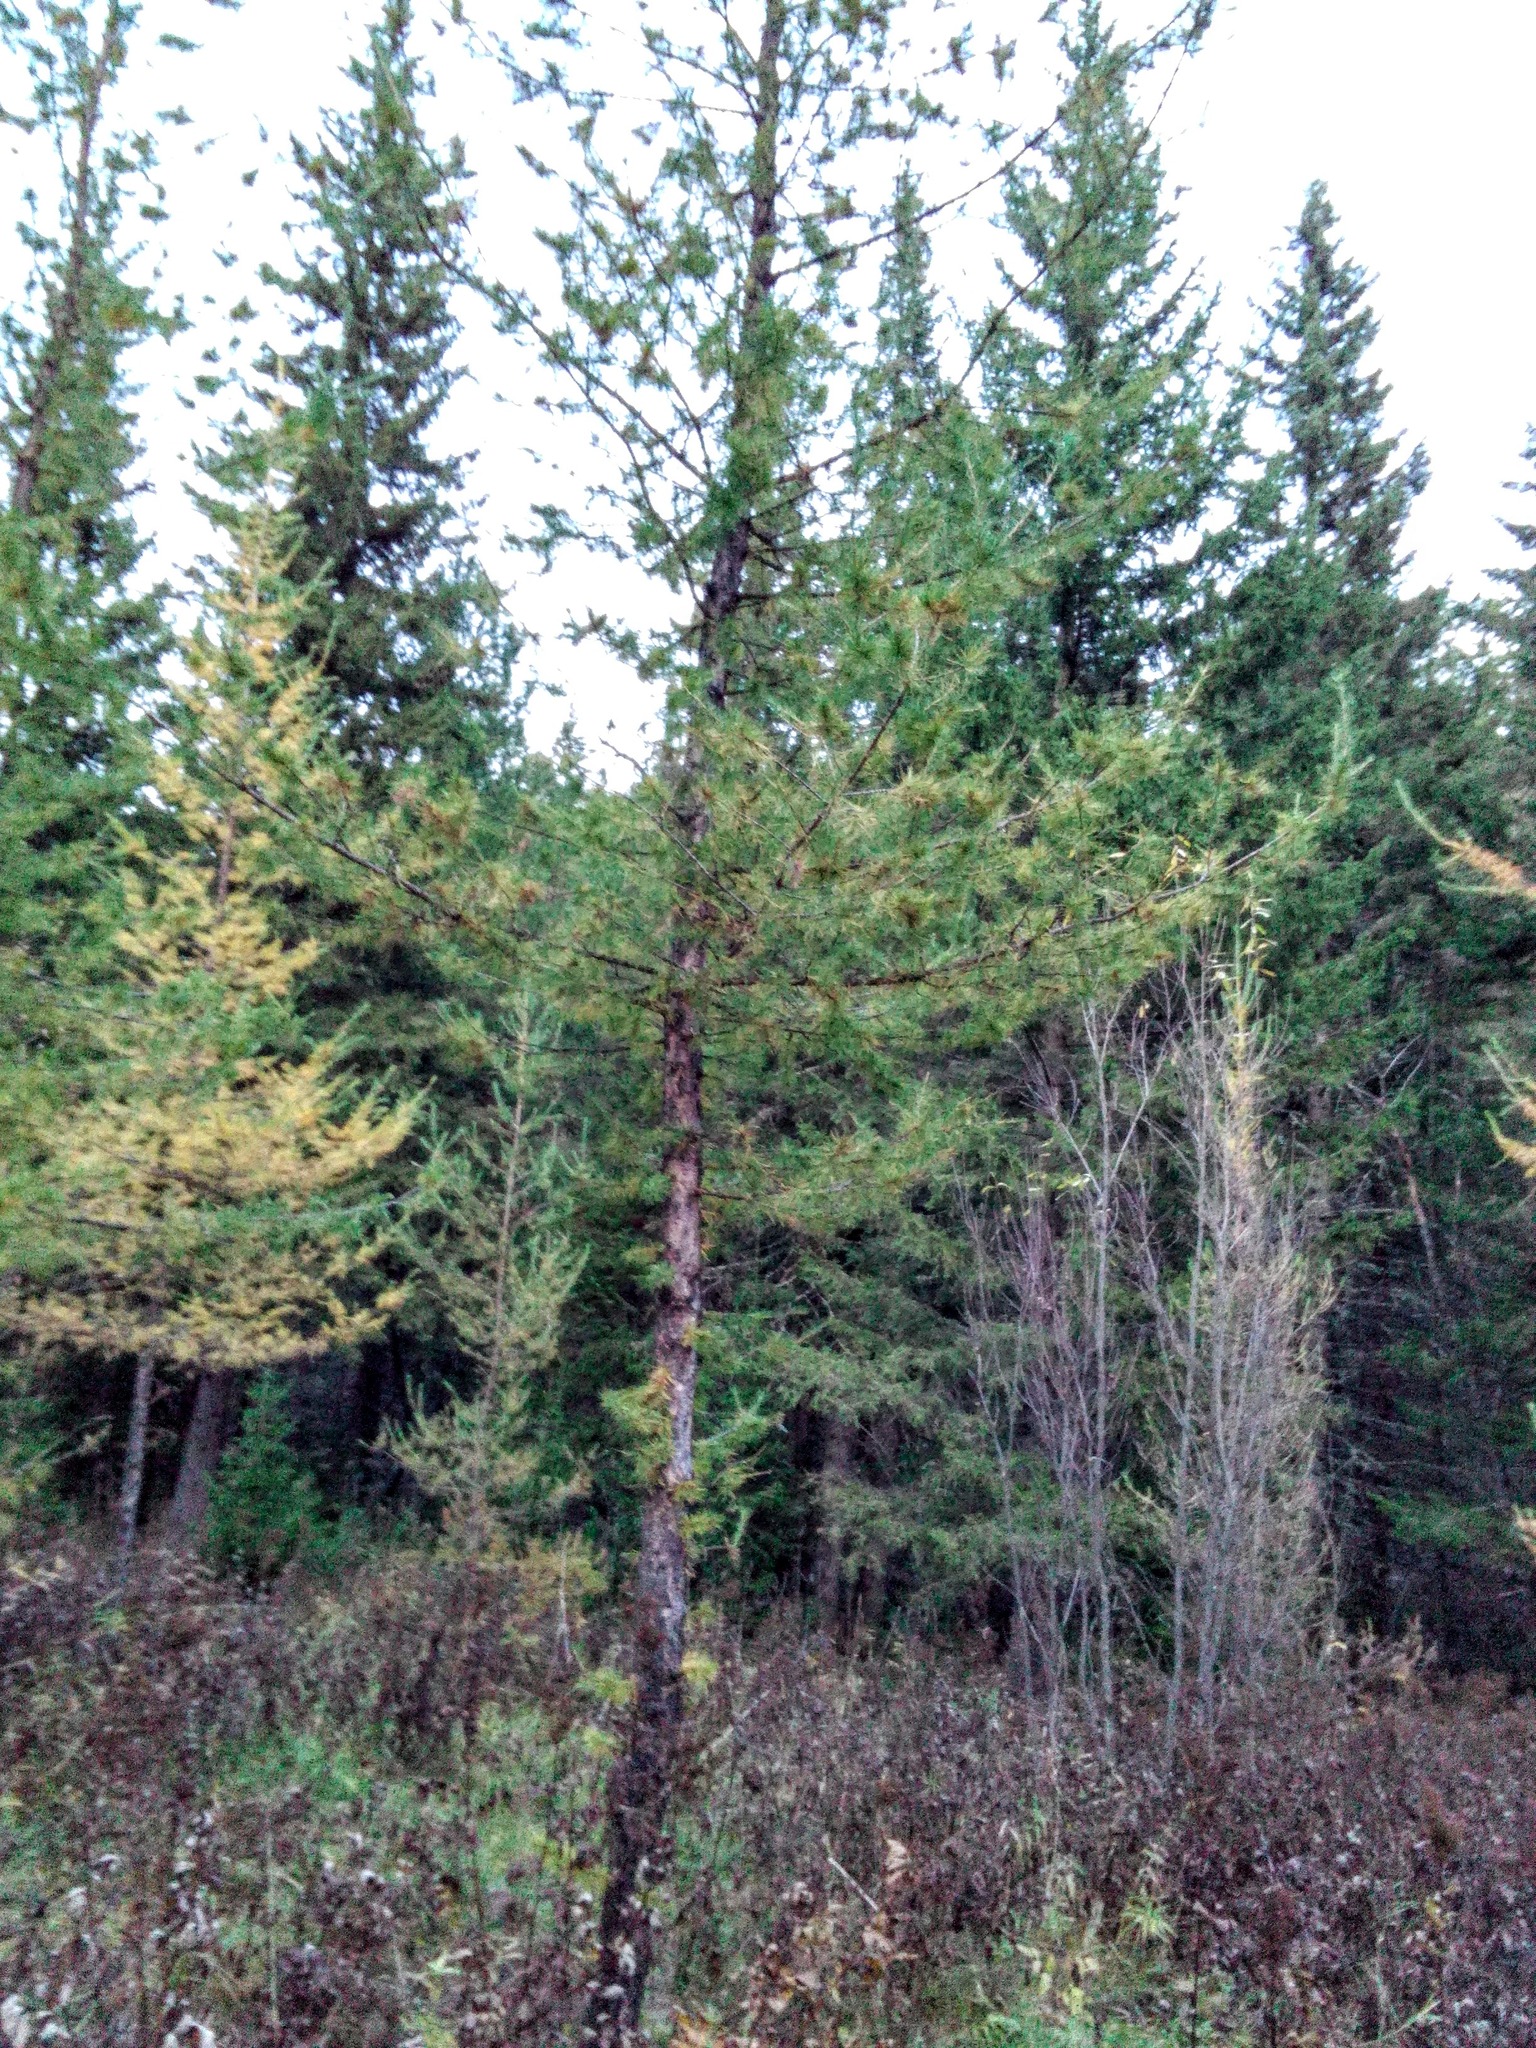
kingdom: Plantae
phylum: Tracheophyta
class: Pinopsida
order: Pinales
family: Pinaceae
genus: Larix
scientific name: Larix sibirica
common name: Siberian larch
